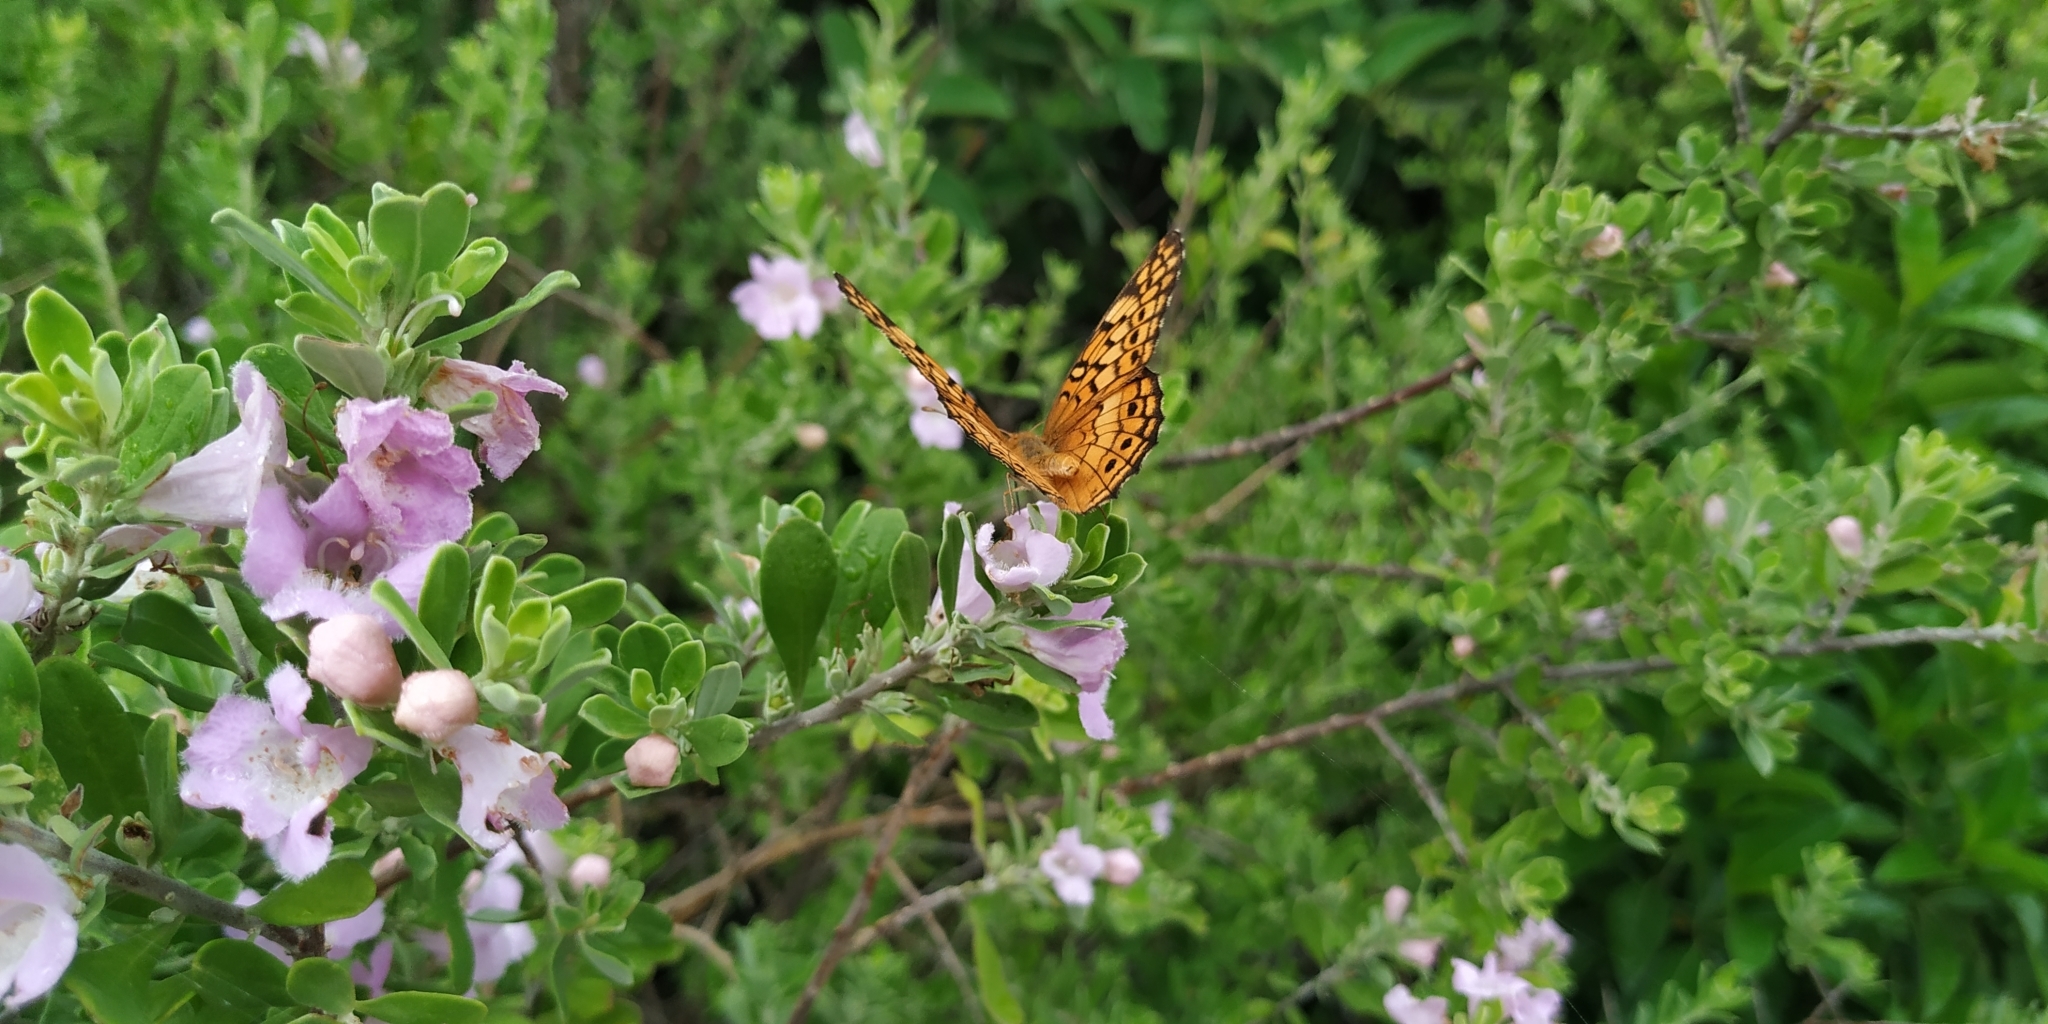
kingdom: Animalia
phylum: Arthropoda
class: Insecta
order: Lepidoptera
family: Nymphalidae
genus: Euptoieta
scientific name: Euptoieta claudia
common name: Variegated fritillary
